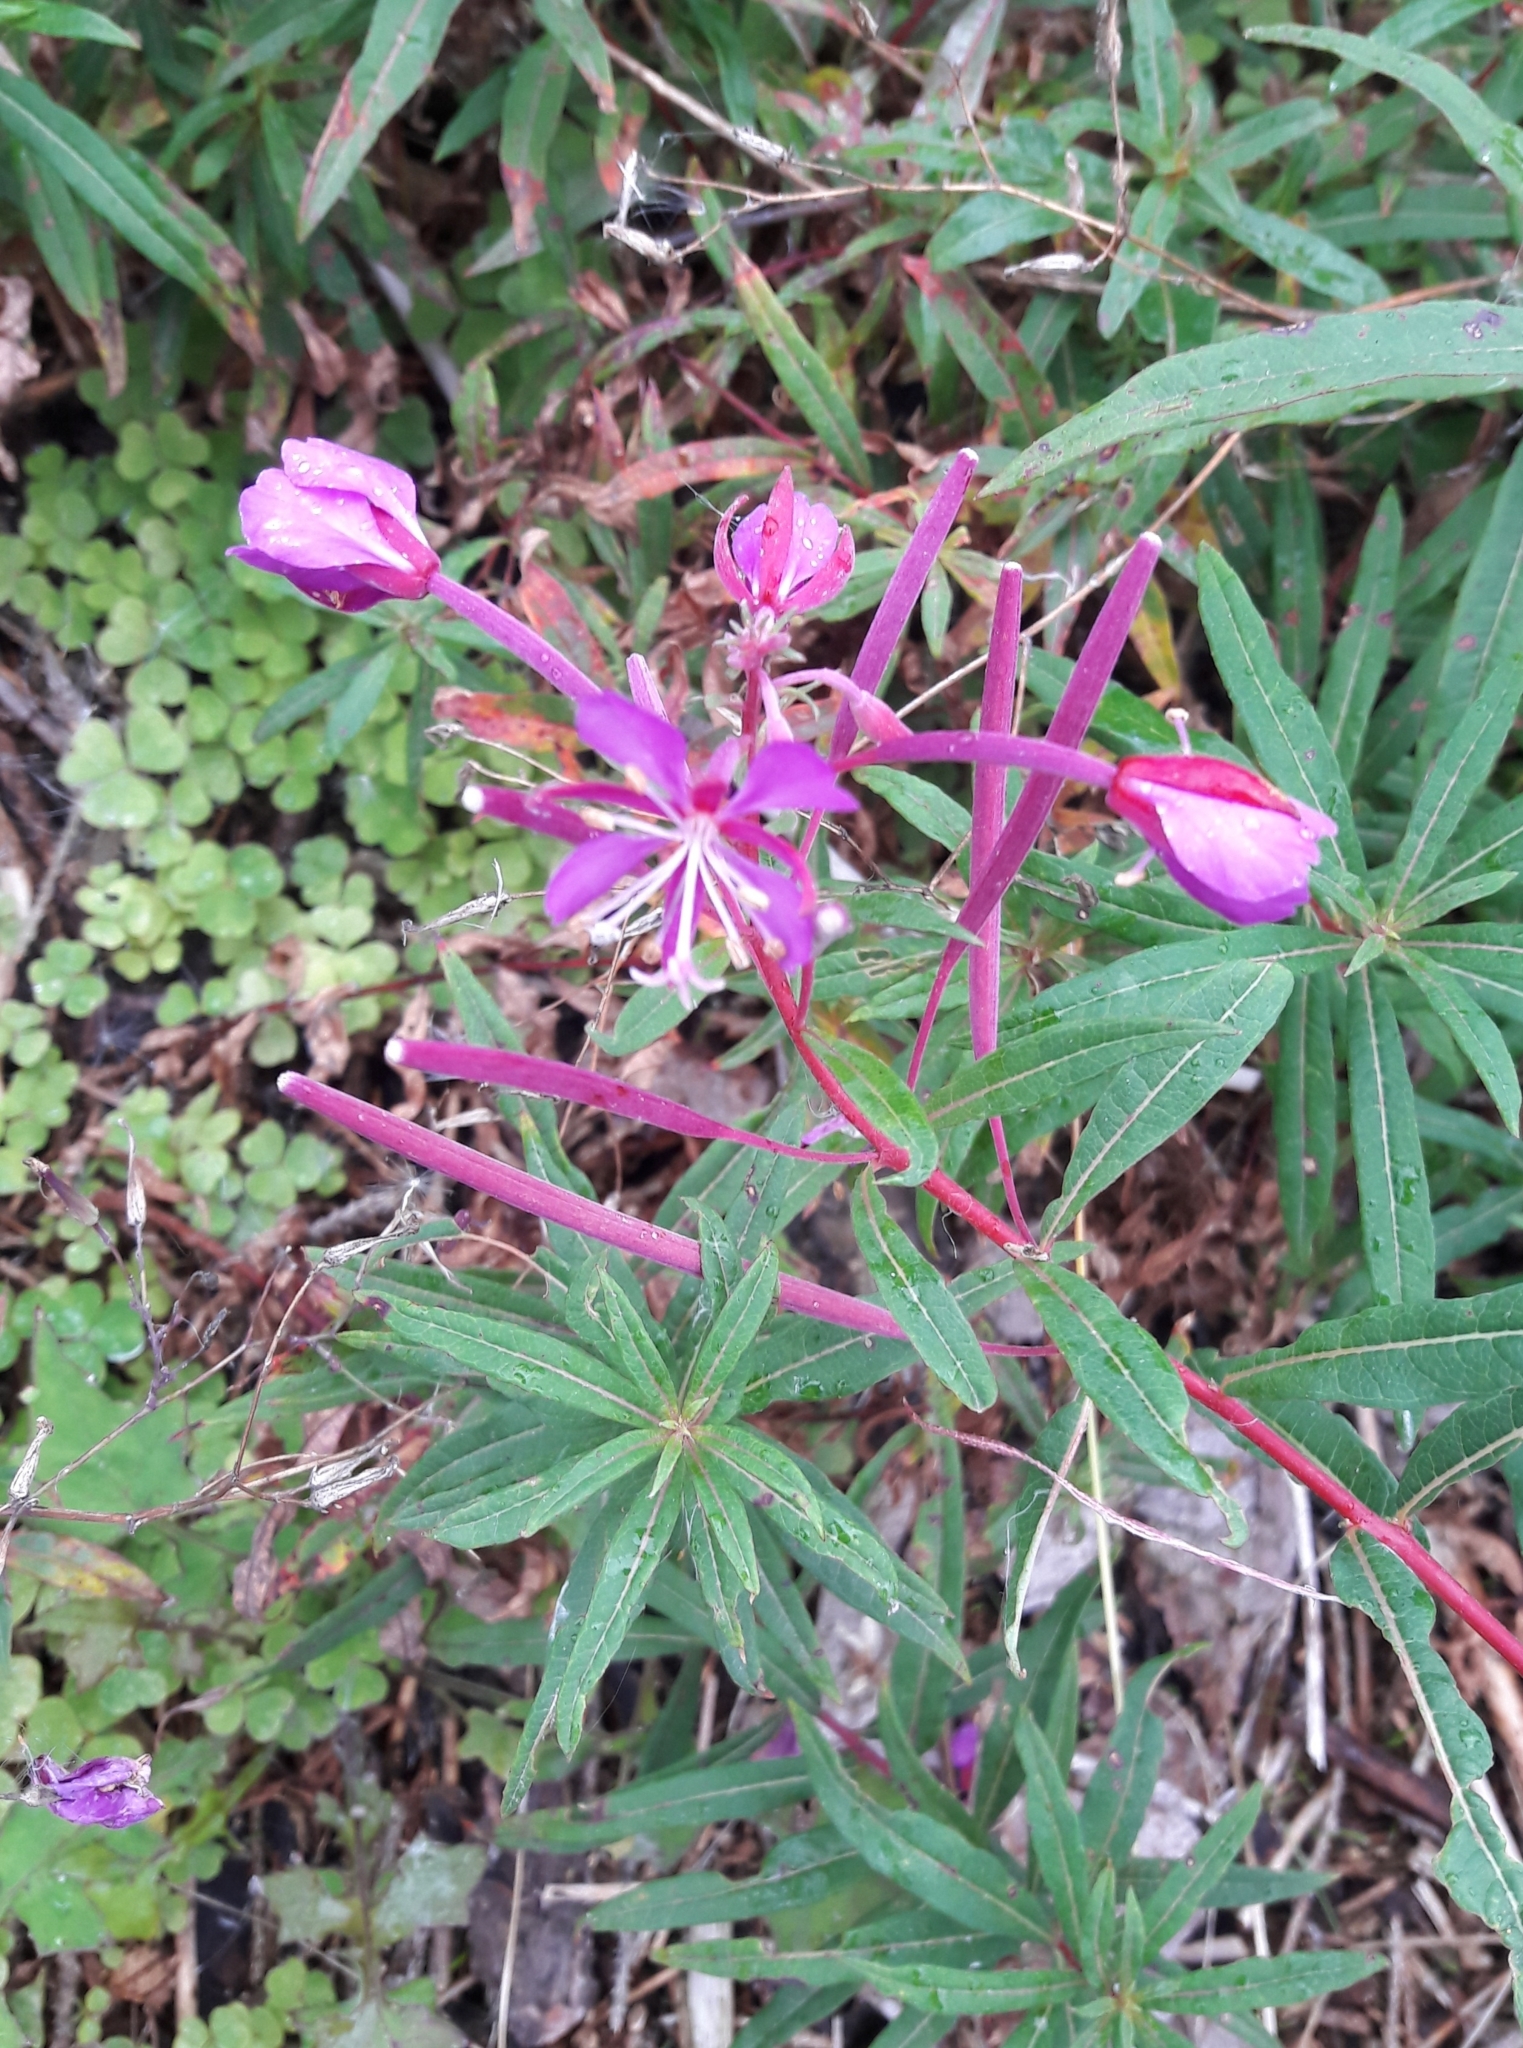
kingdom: Plantae
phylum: Tracheophyta
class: Magnoliopsida
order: Myrtales
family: Onagraceae
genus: Chamaenerion
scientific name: Chamaenerion angustifolium
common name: Fireweed
